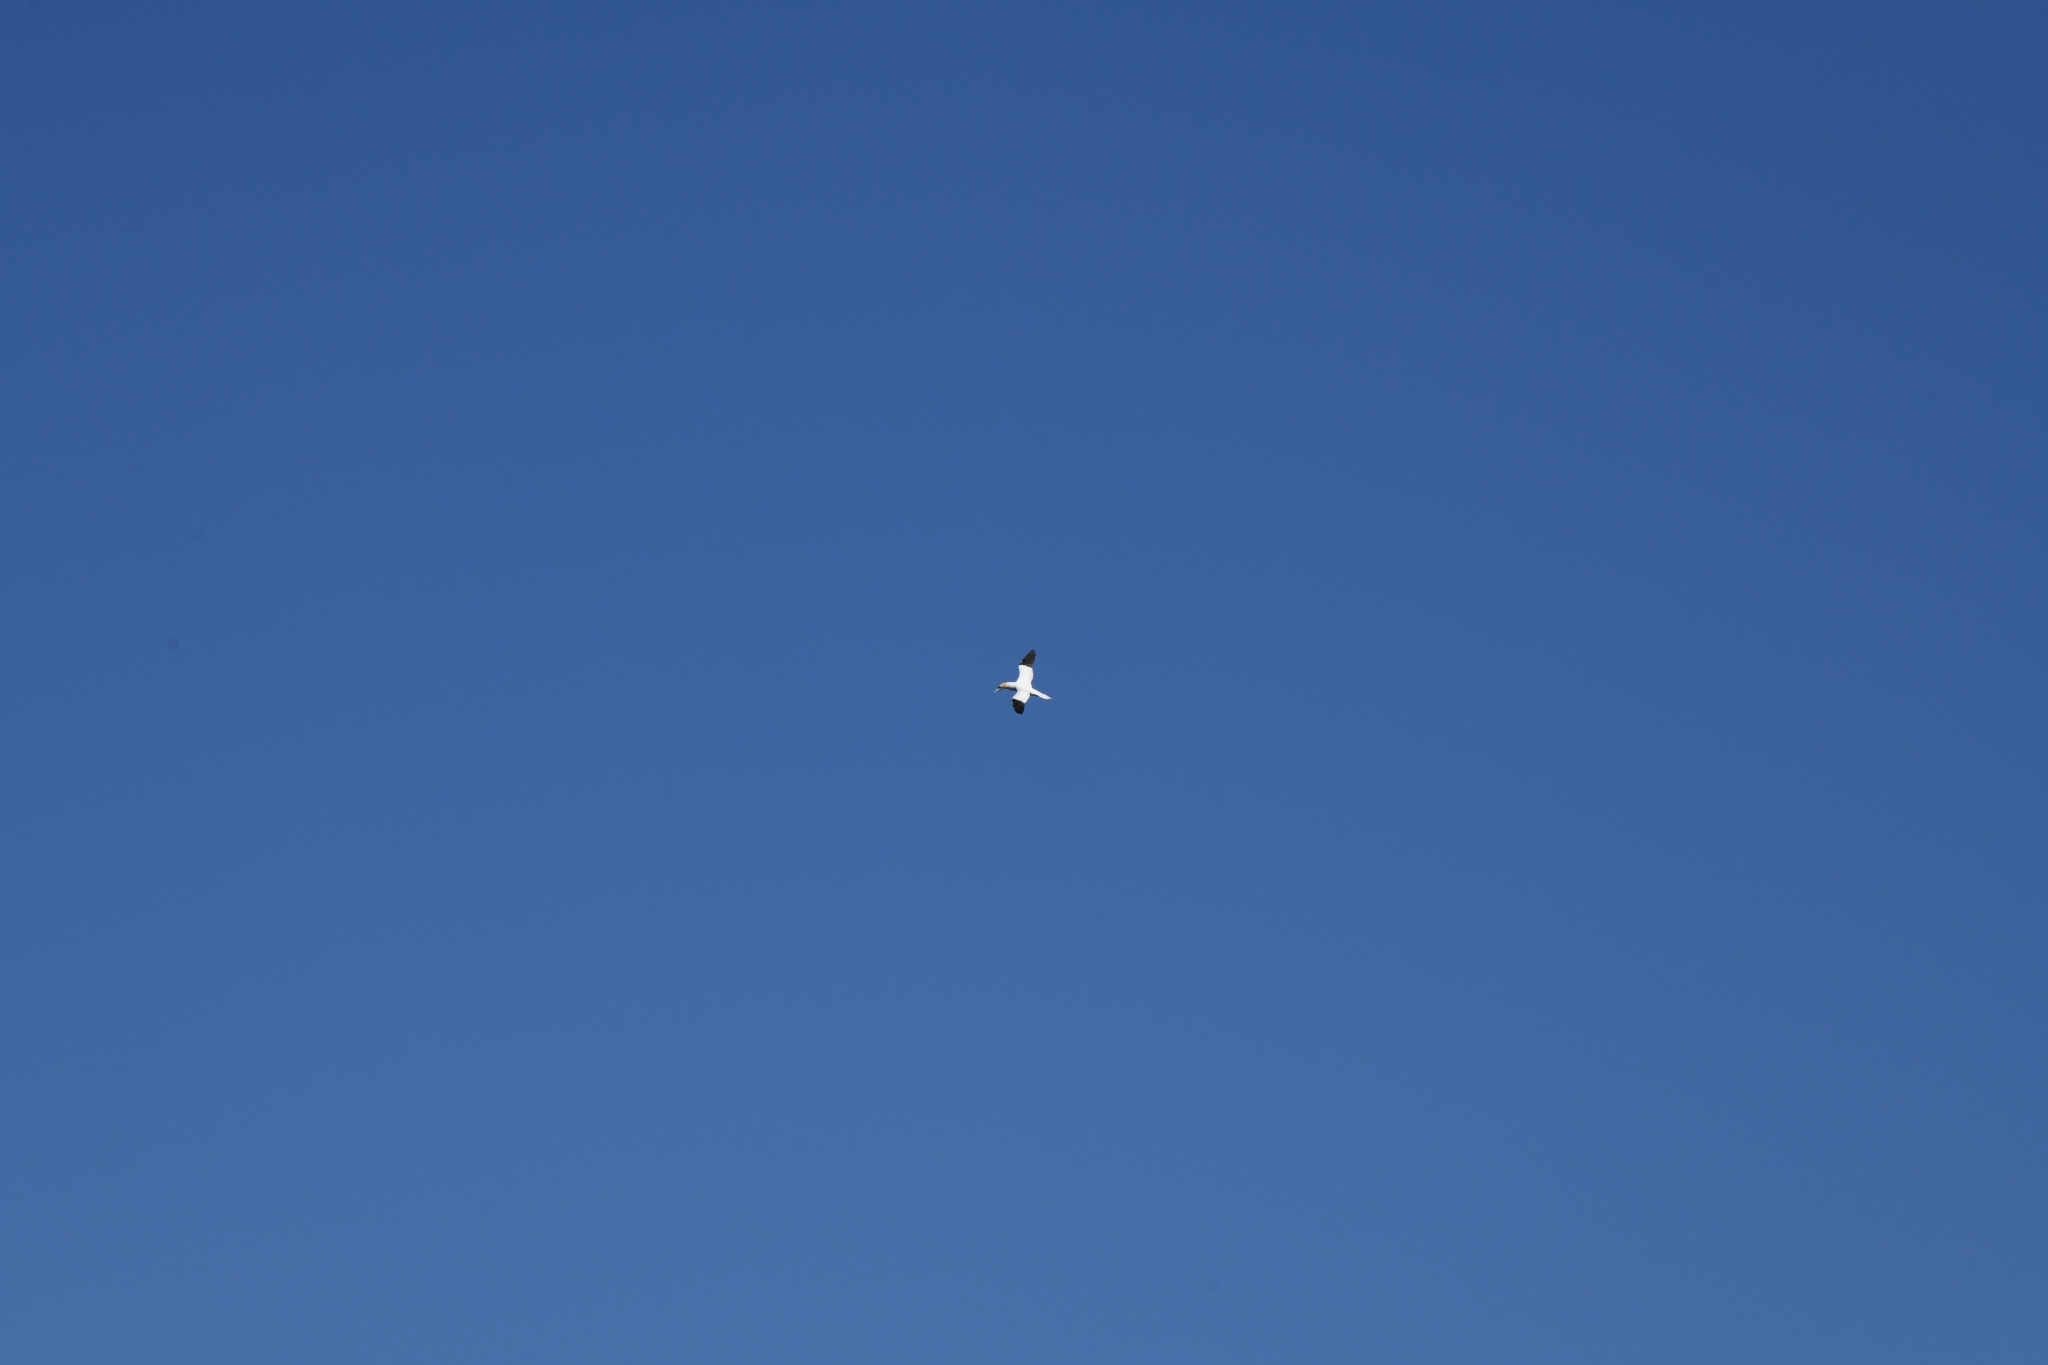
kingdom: Animalia
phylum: Chordata
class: Aves
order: Suliformes
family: Sulidae
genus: Morus
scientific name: Morus bassanus
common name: Northern gannet
